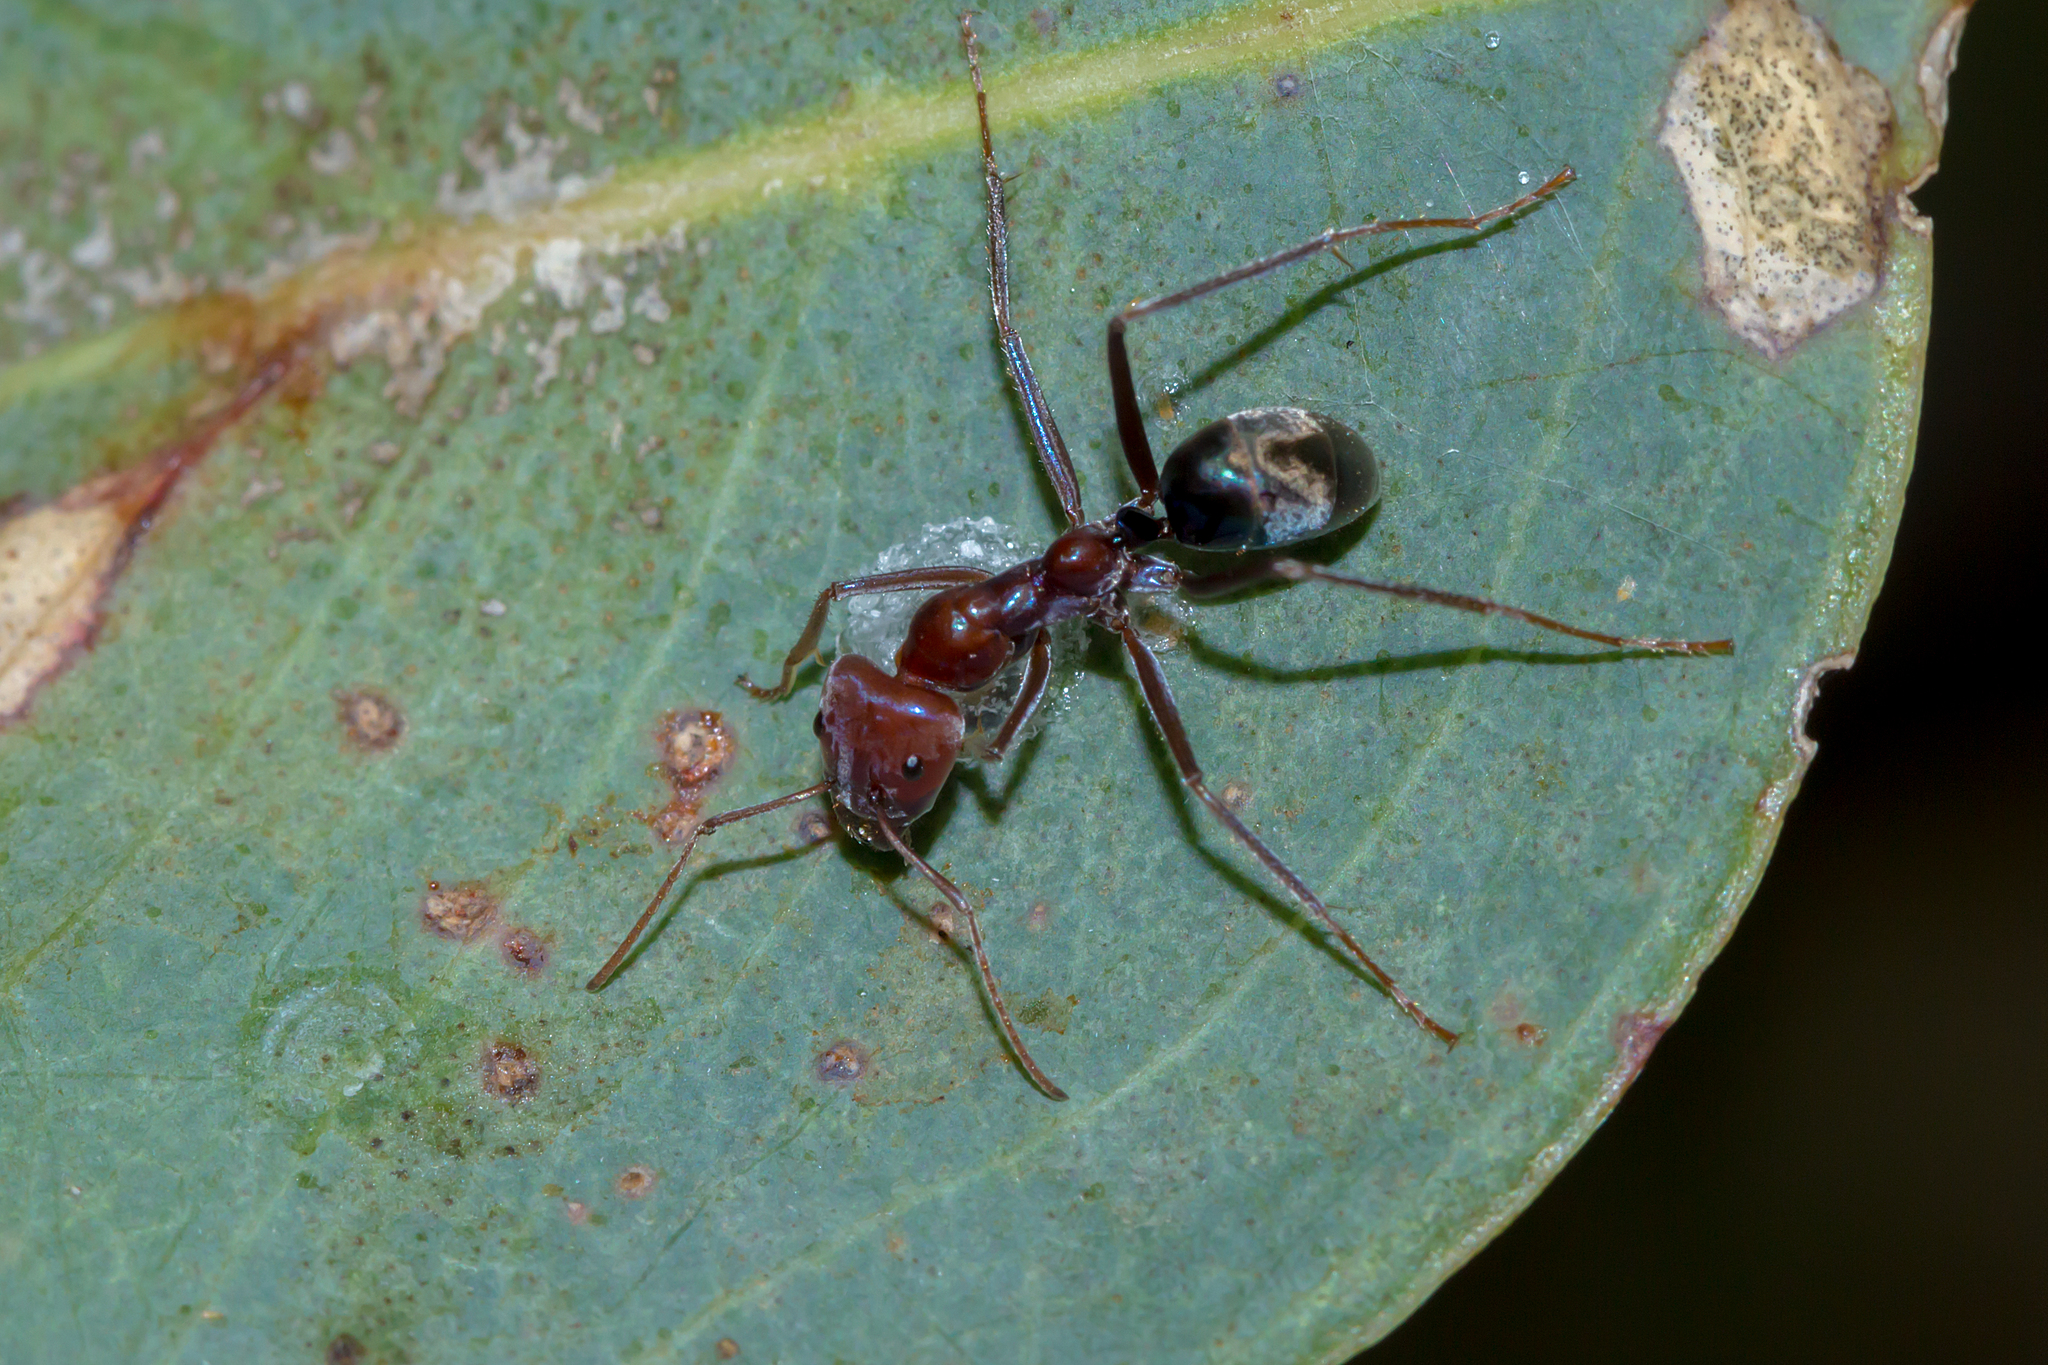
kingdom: Animalia
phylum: Arthropoda
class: Insecta
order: Hymenoptera
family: Formicidae
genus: Iridomyrmex
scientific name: Iridomyrmex purpureus
